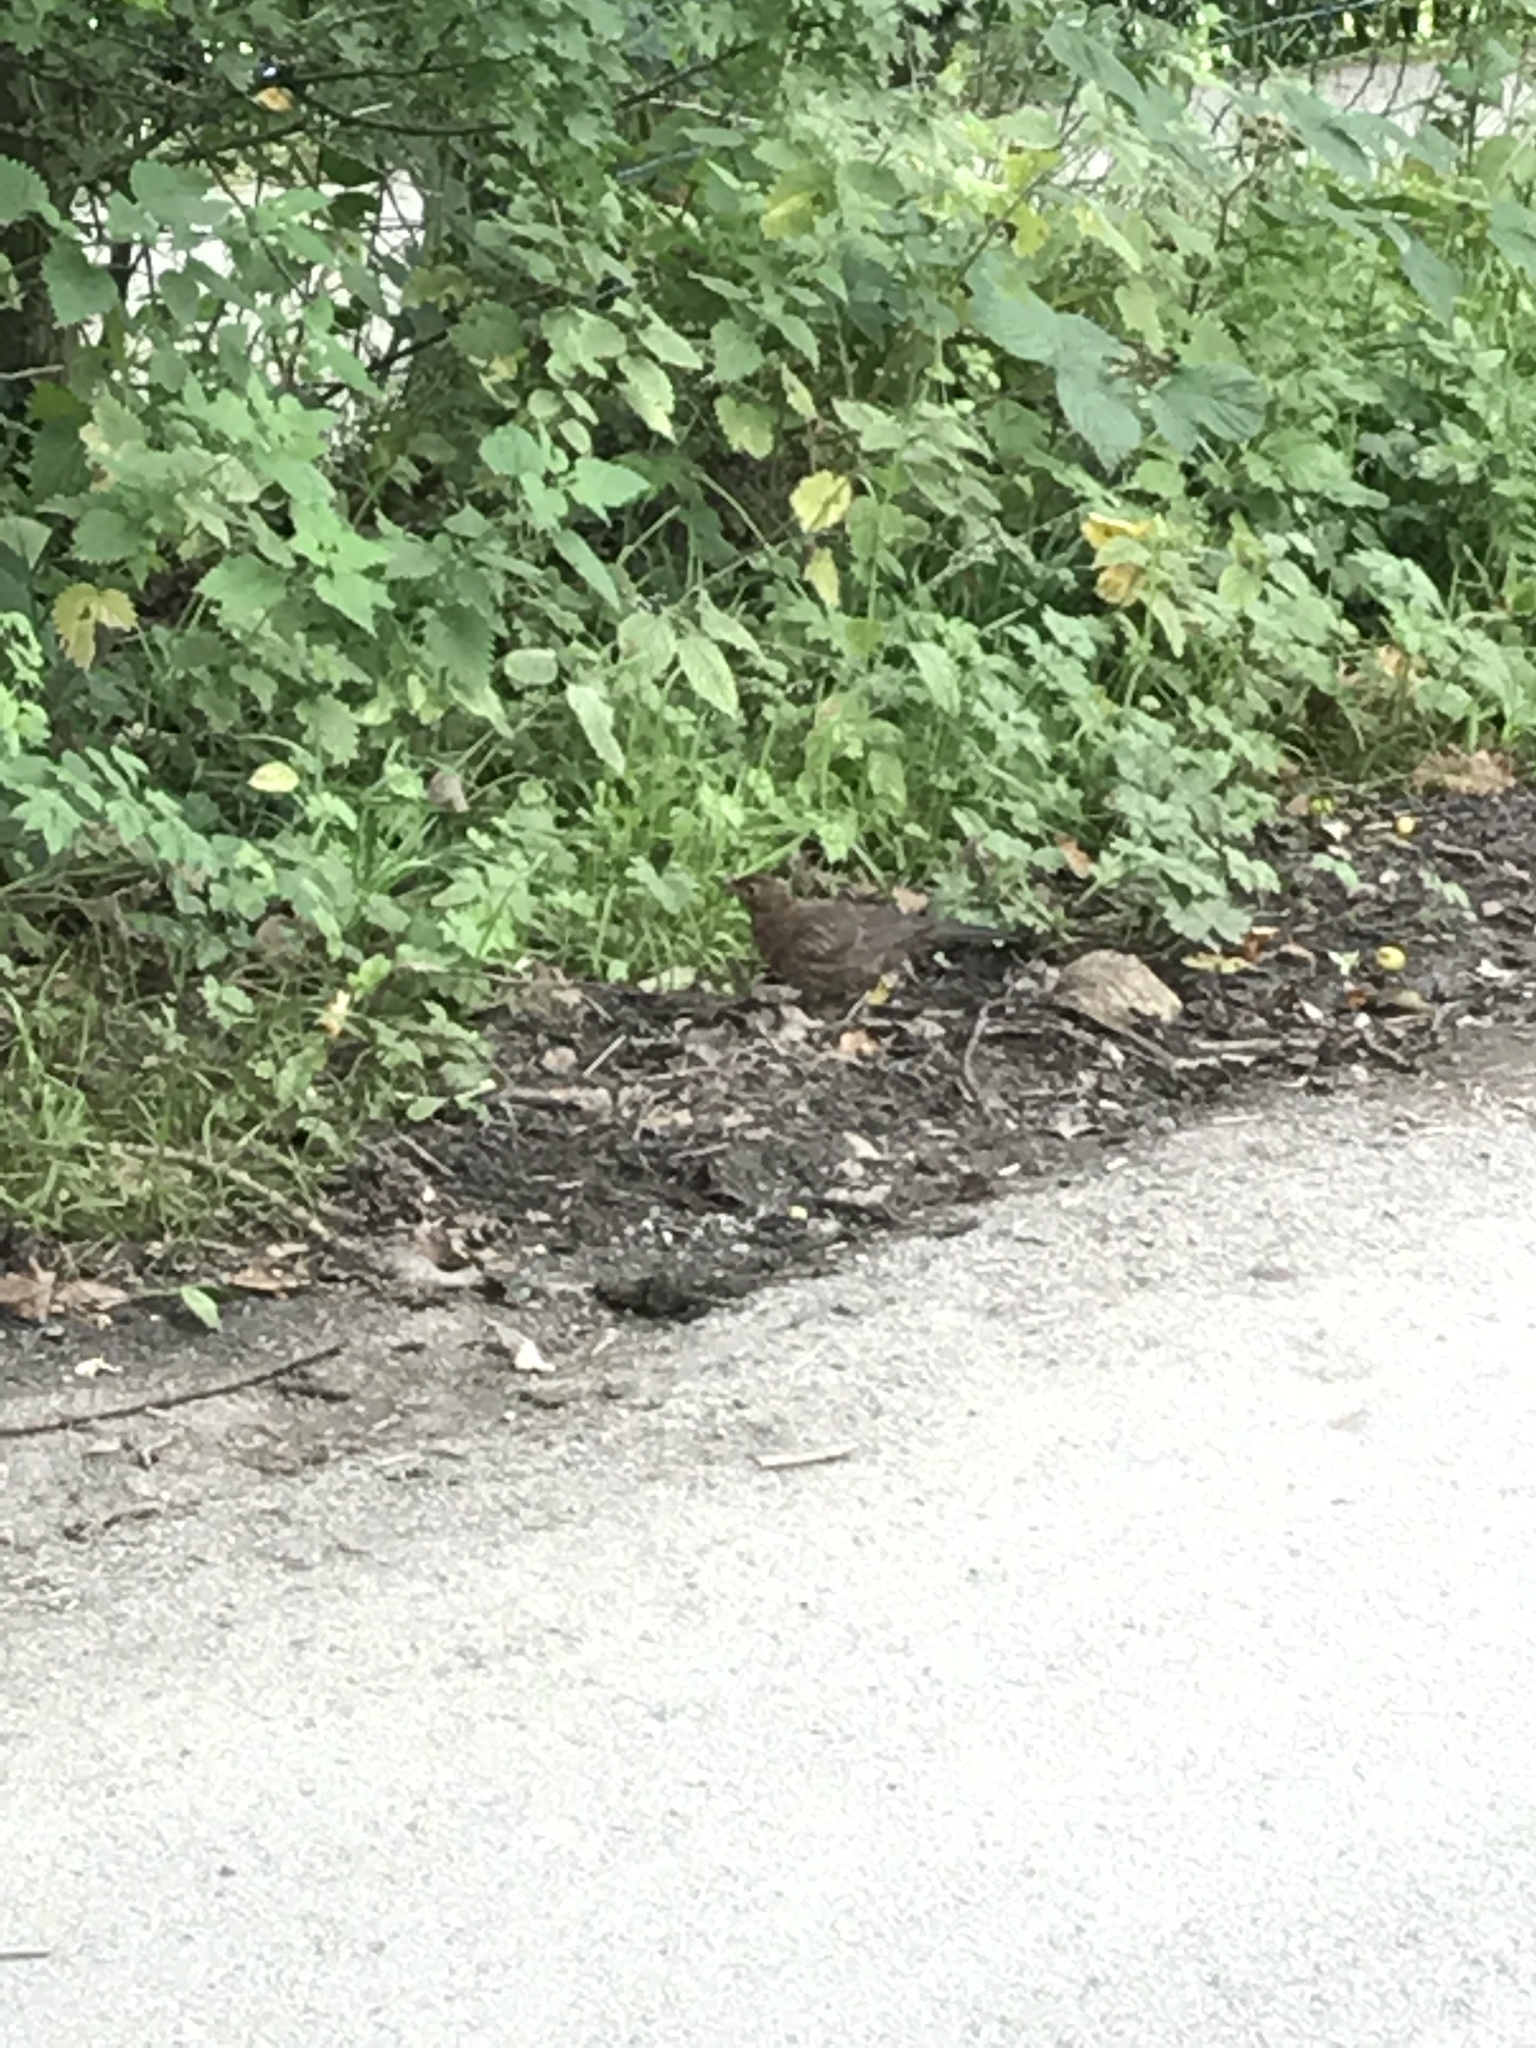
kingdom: Animalia
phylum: Chordata
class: Aves
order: Passeriformes
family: Turdidae
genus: Turdus
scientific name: Turdus merula
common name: Common blackbird
